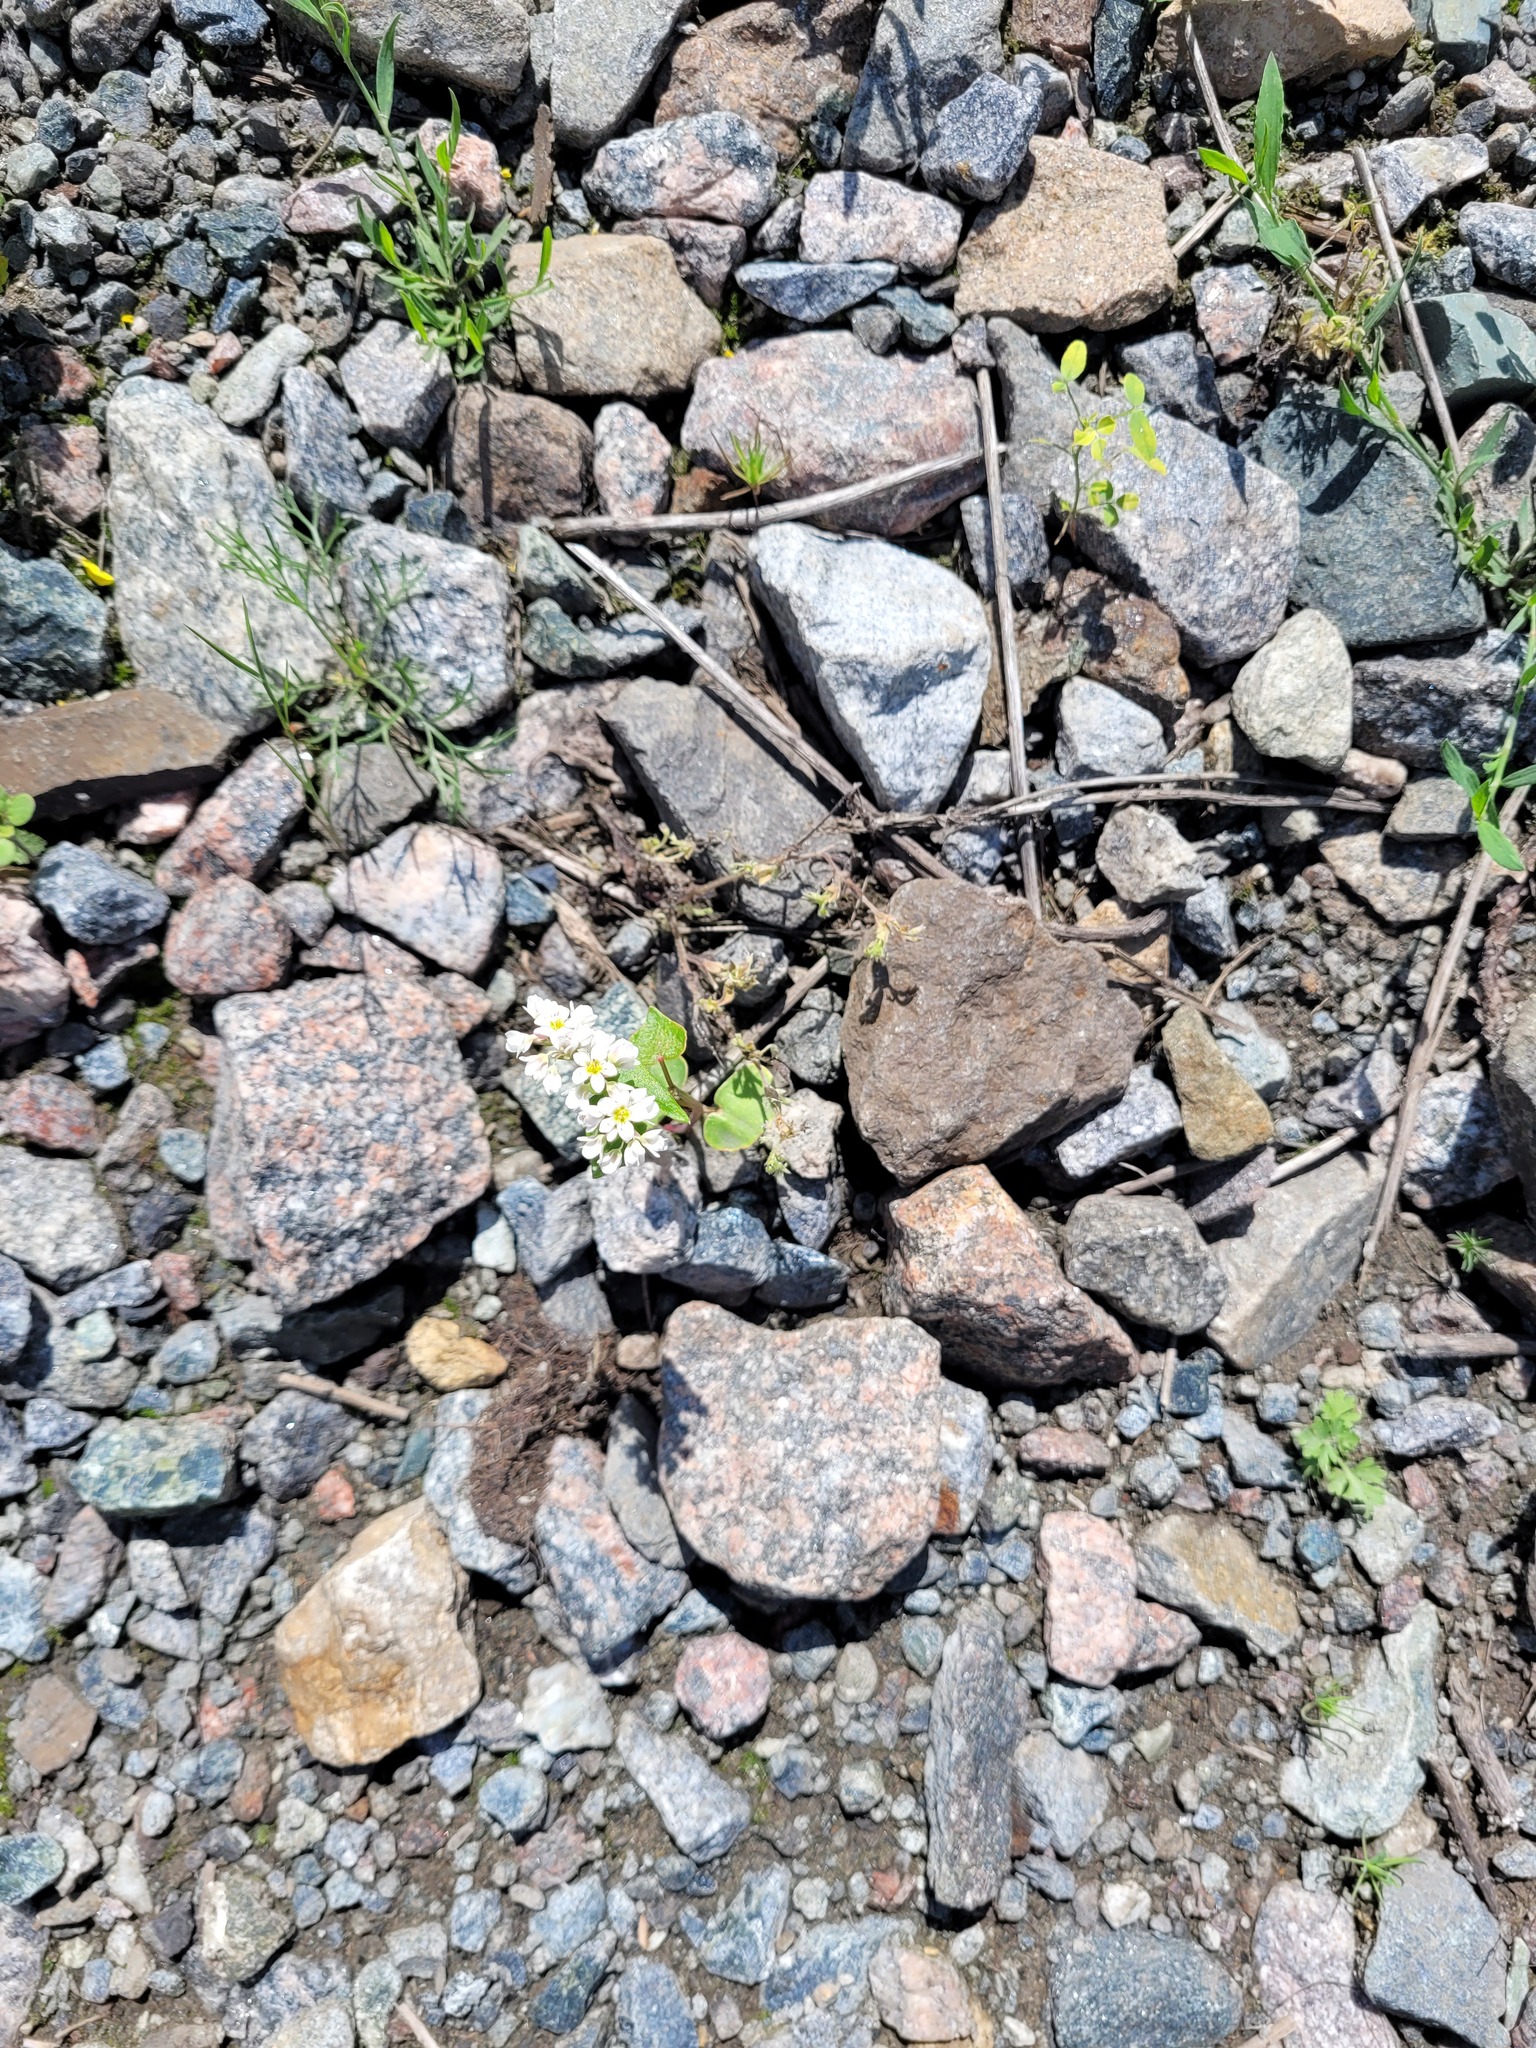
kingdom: Plantae
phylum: Tracheophyta
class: Magnoliopsida
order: Caryophyllales
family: Polygonaceae
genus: Fagopyrum
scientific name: Fagopyrum esculentum
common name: Buckwheat
